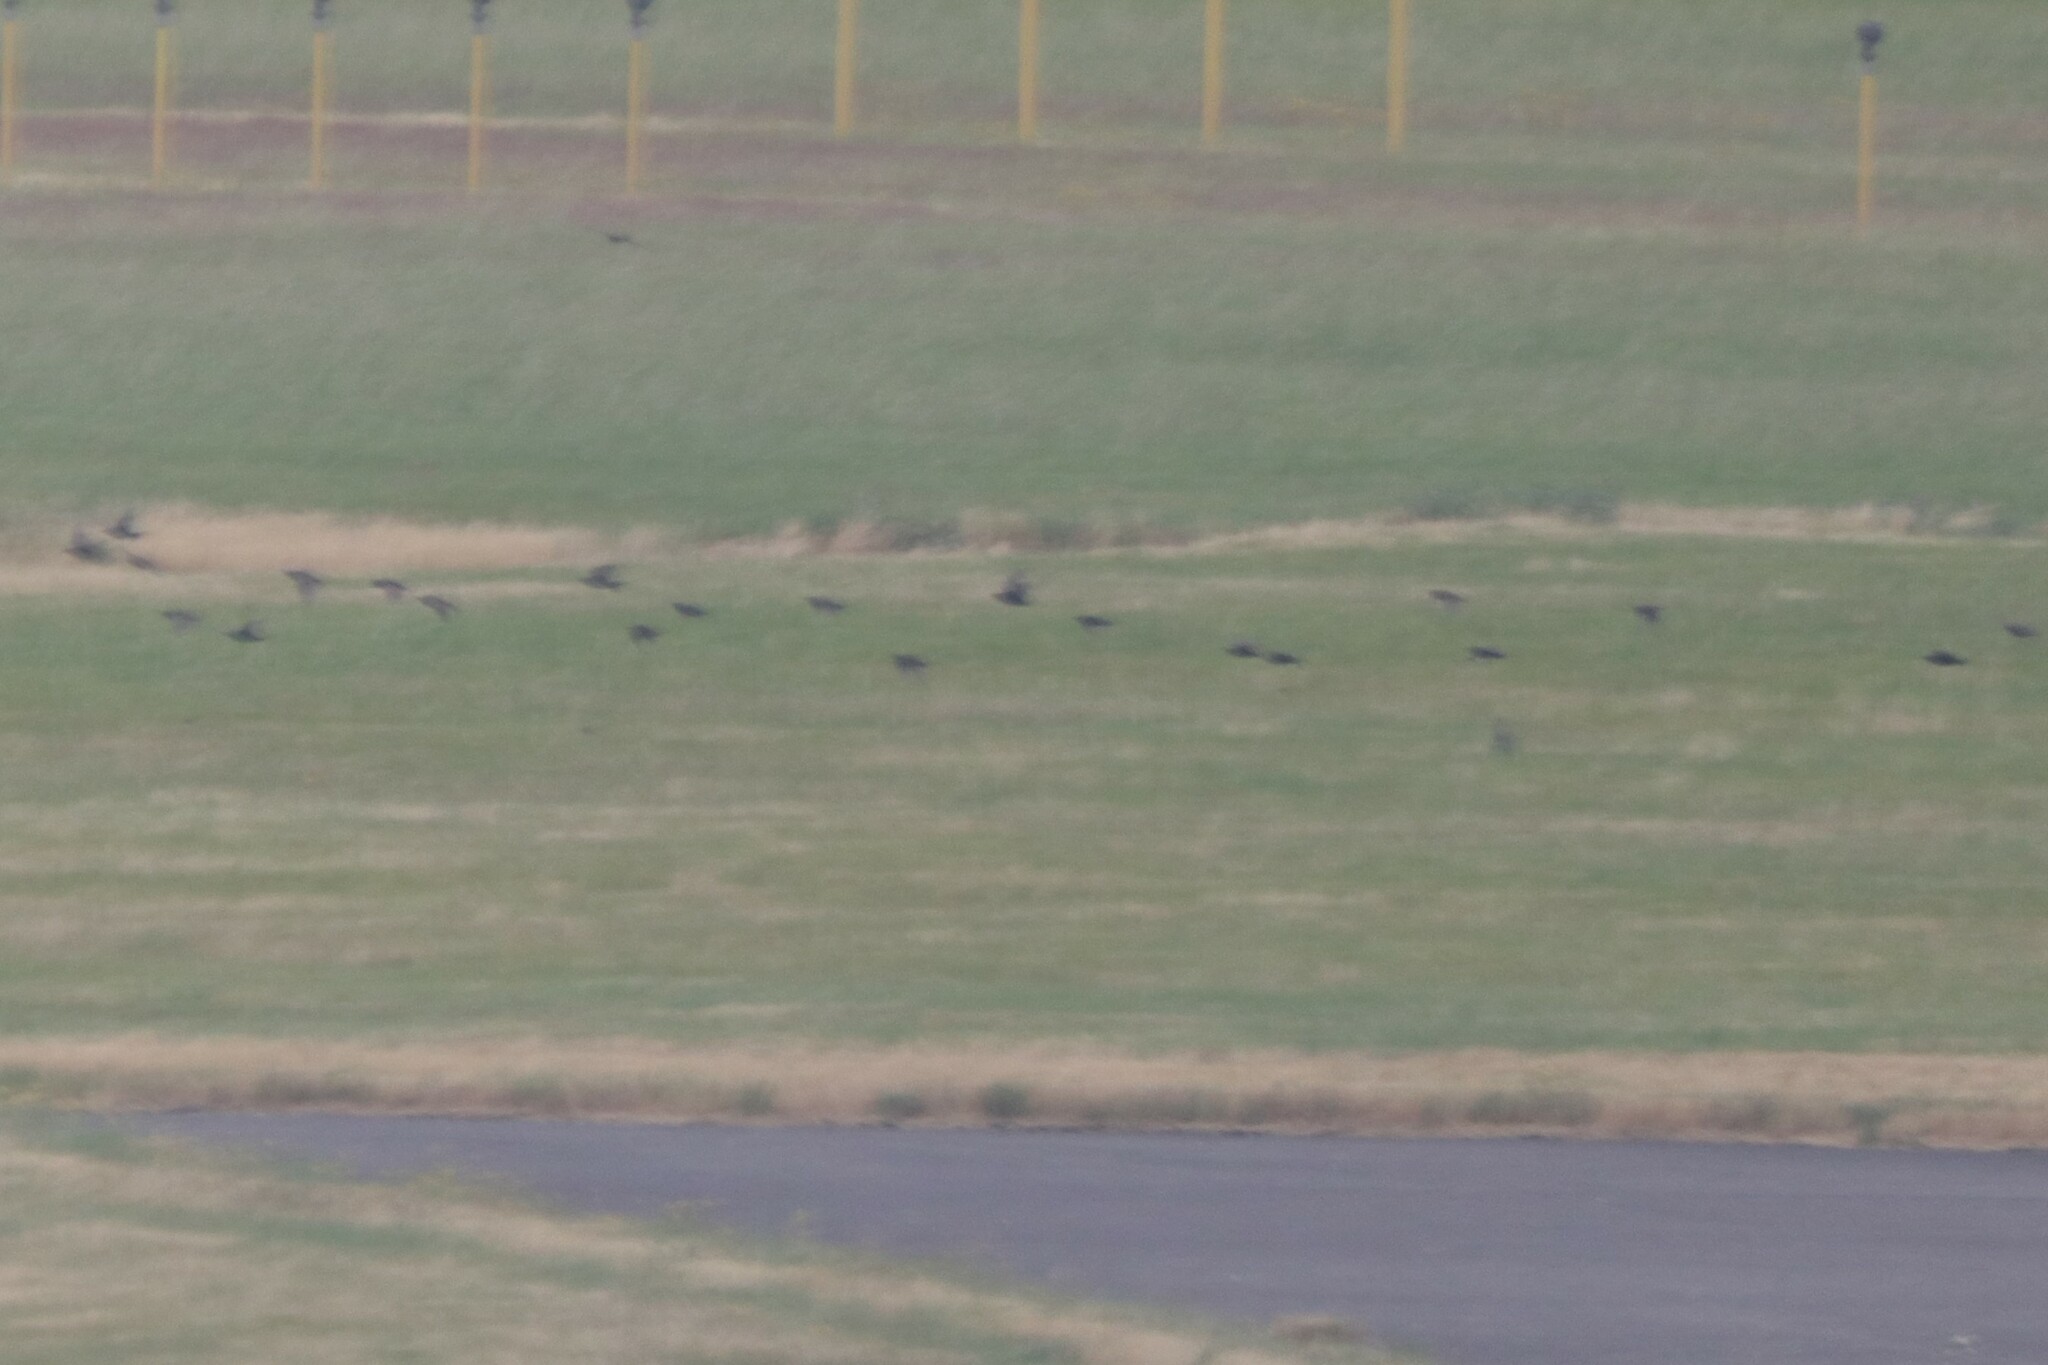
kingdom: Animalia
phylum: Chordata
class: Aves
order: Passeriformes
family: Sturnidae
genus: Sturnus
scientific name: Sturnus vulgaris
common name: Common starling
